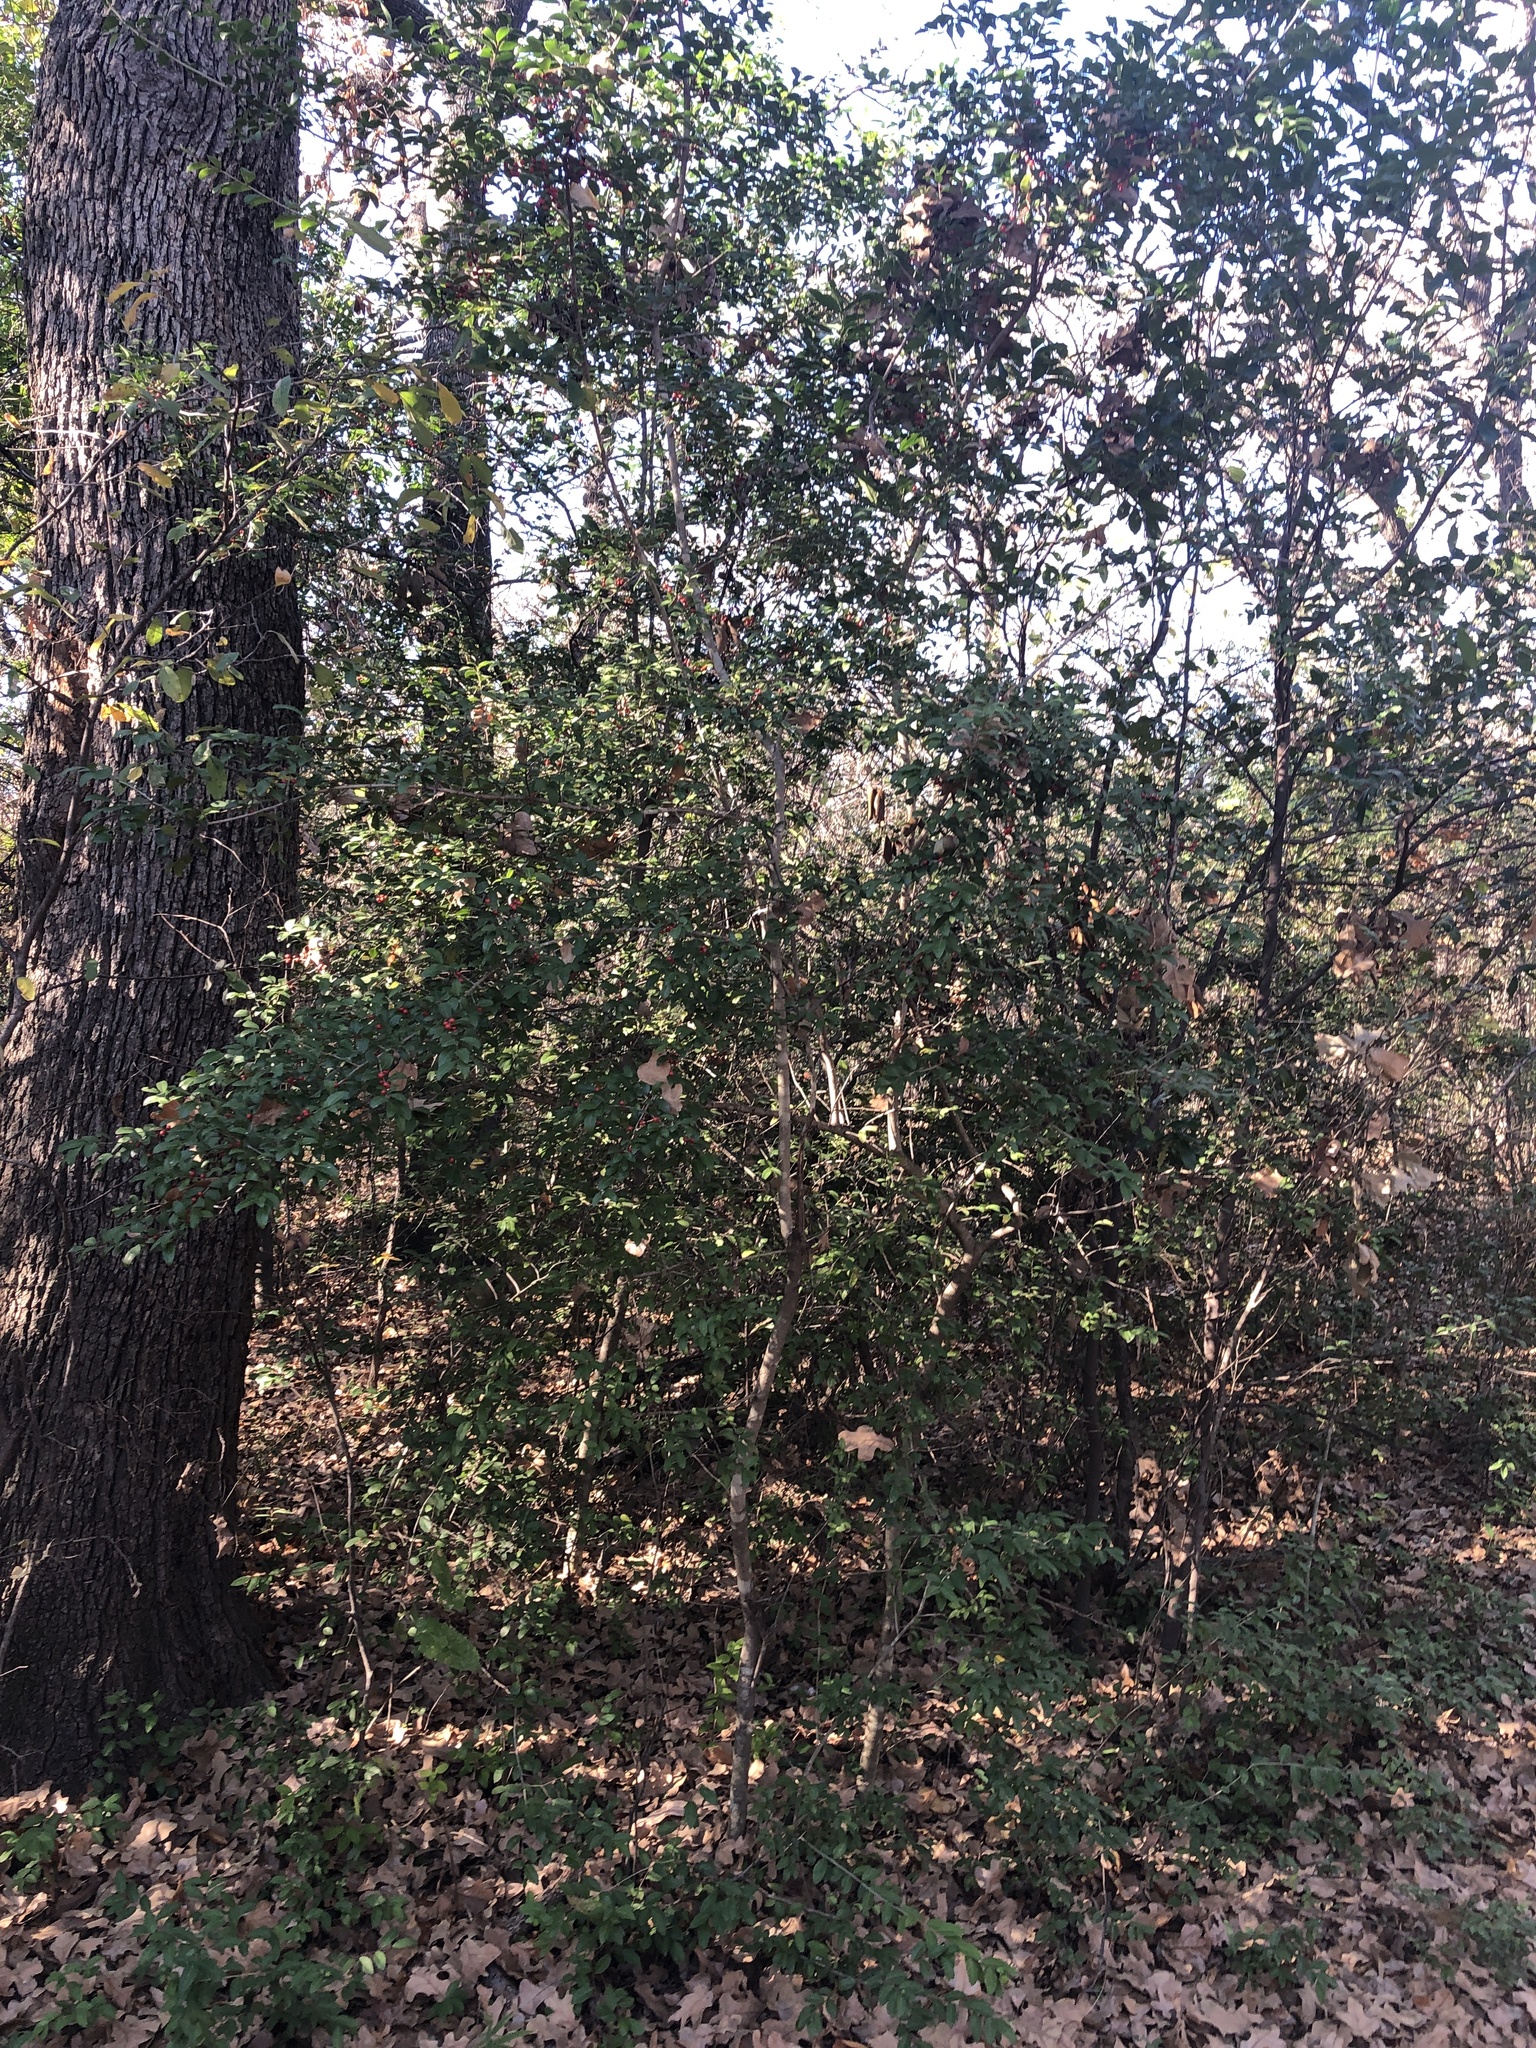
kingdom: Plantae
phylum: Tracheophyta
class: Magnoliopsida
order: Aquifoliales
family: Aquifoliaceae
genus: Ilex
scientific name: Ilex vomitoria
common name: Yaupon holly
